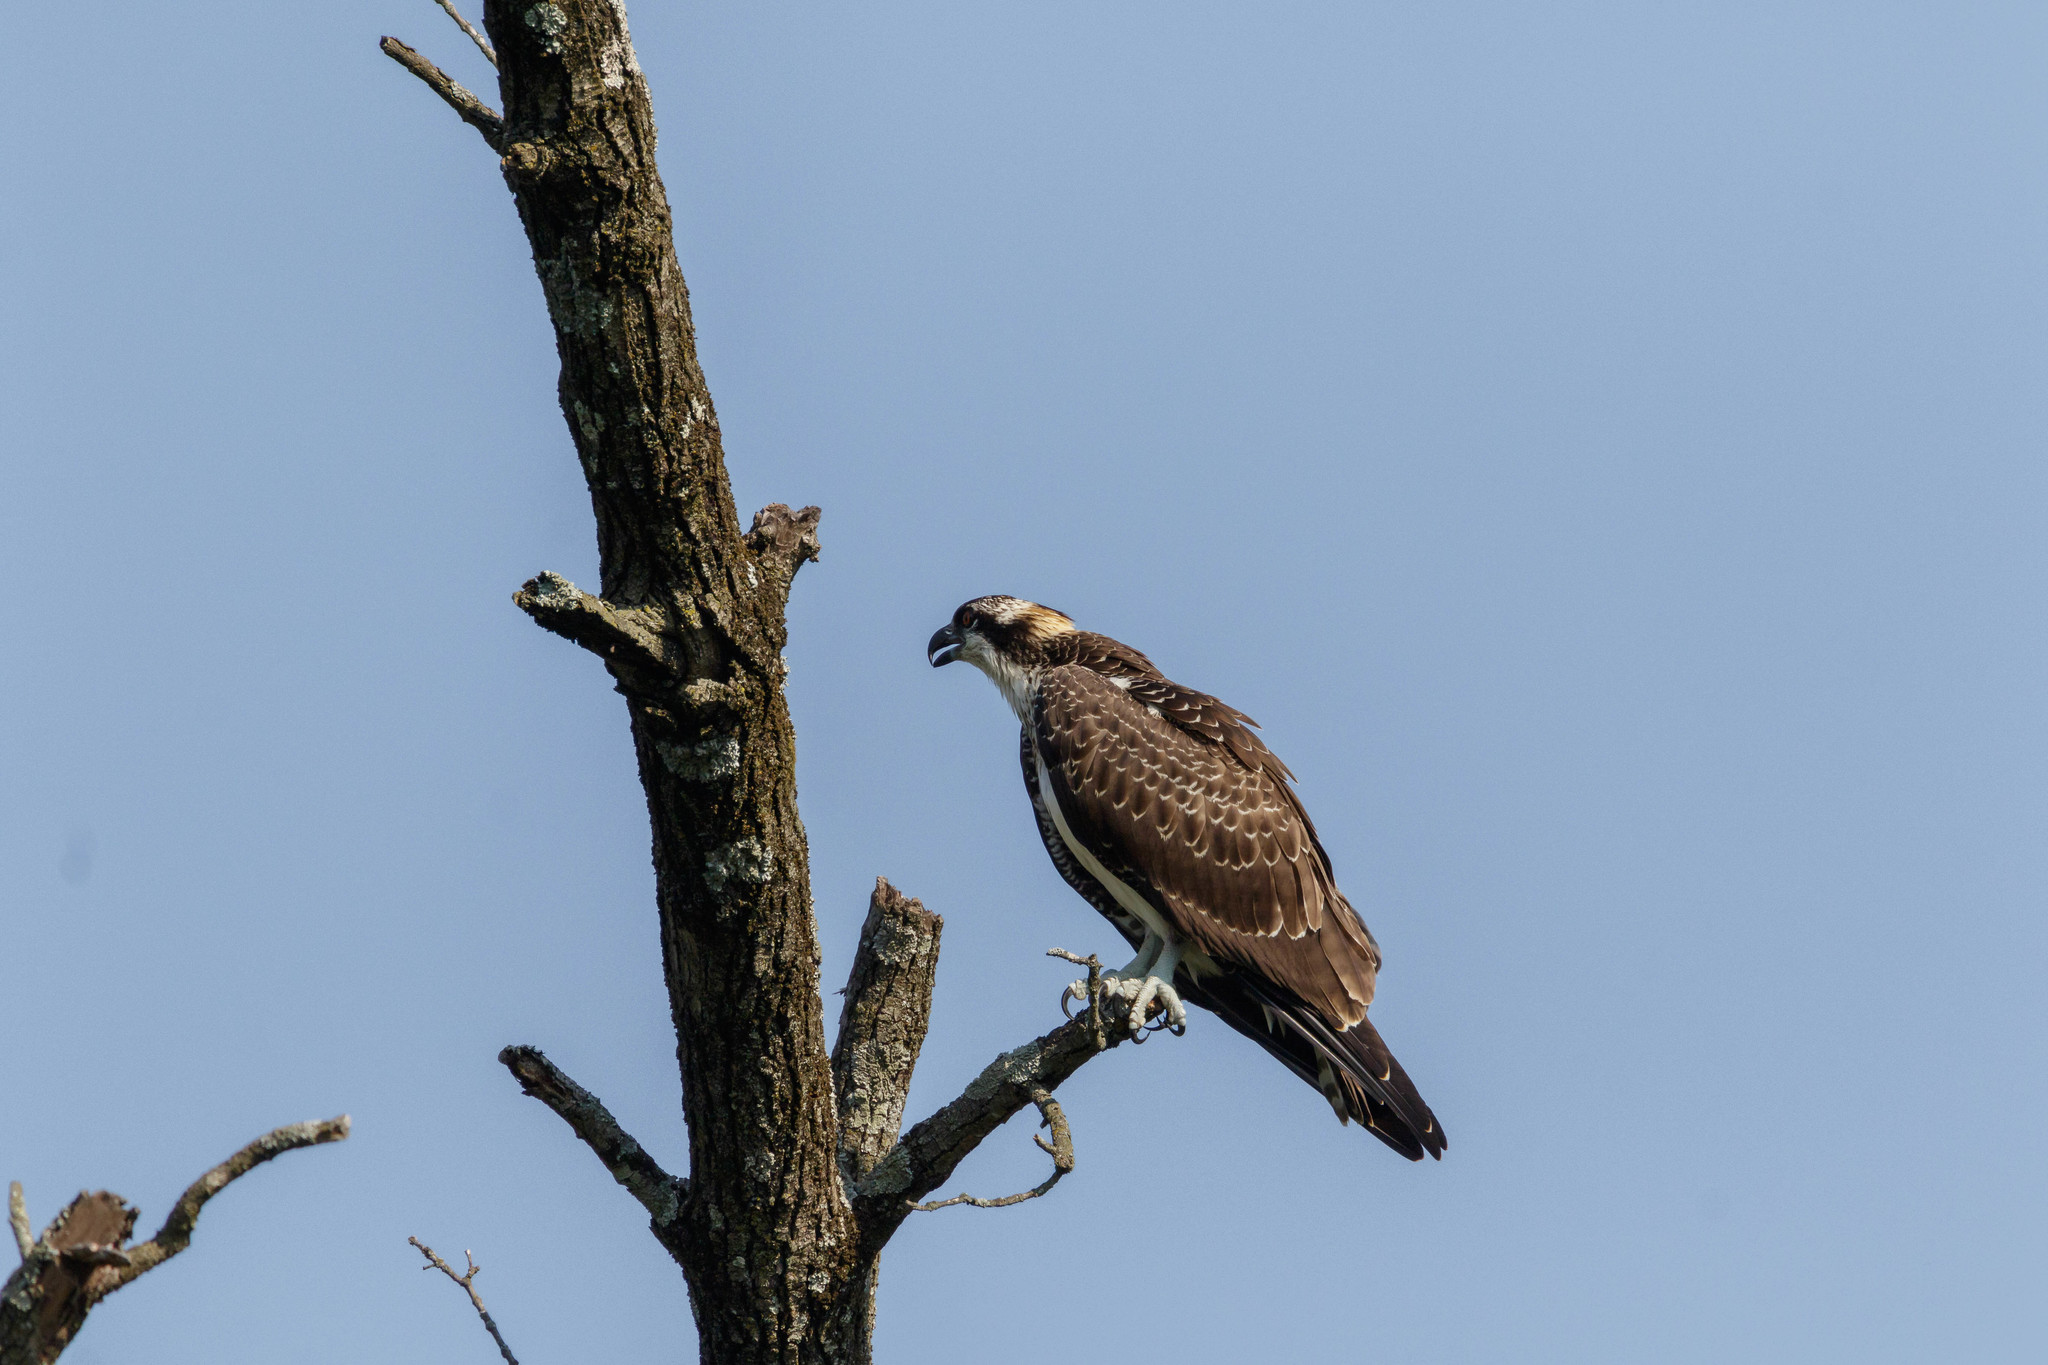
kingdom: Animalia
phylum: Chordata
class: Aves
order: Accipitriformes
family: Pandionidae
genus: Pandion
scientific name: Pandion haliaetus
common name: Osprey
